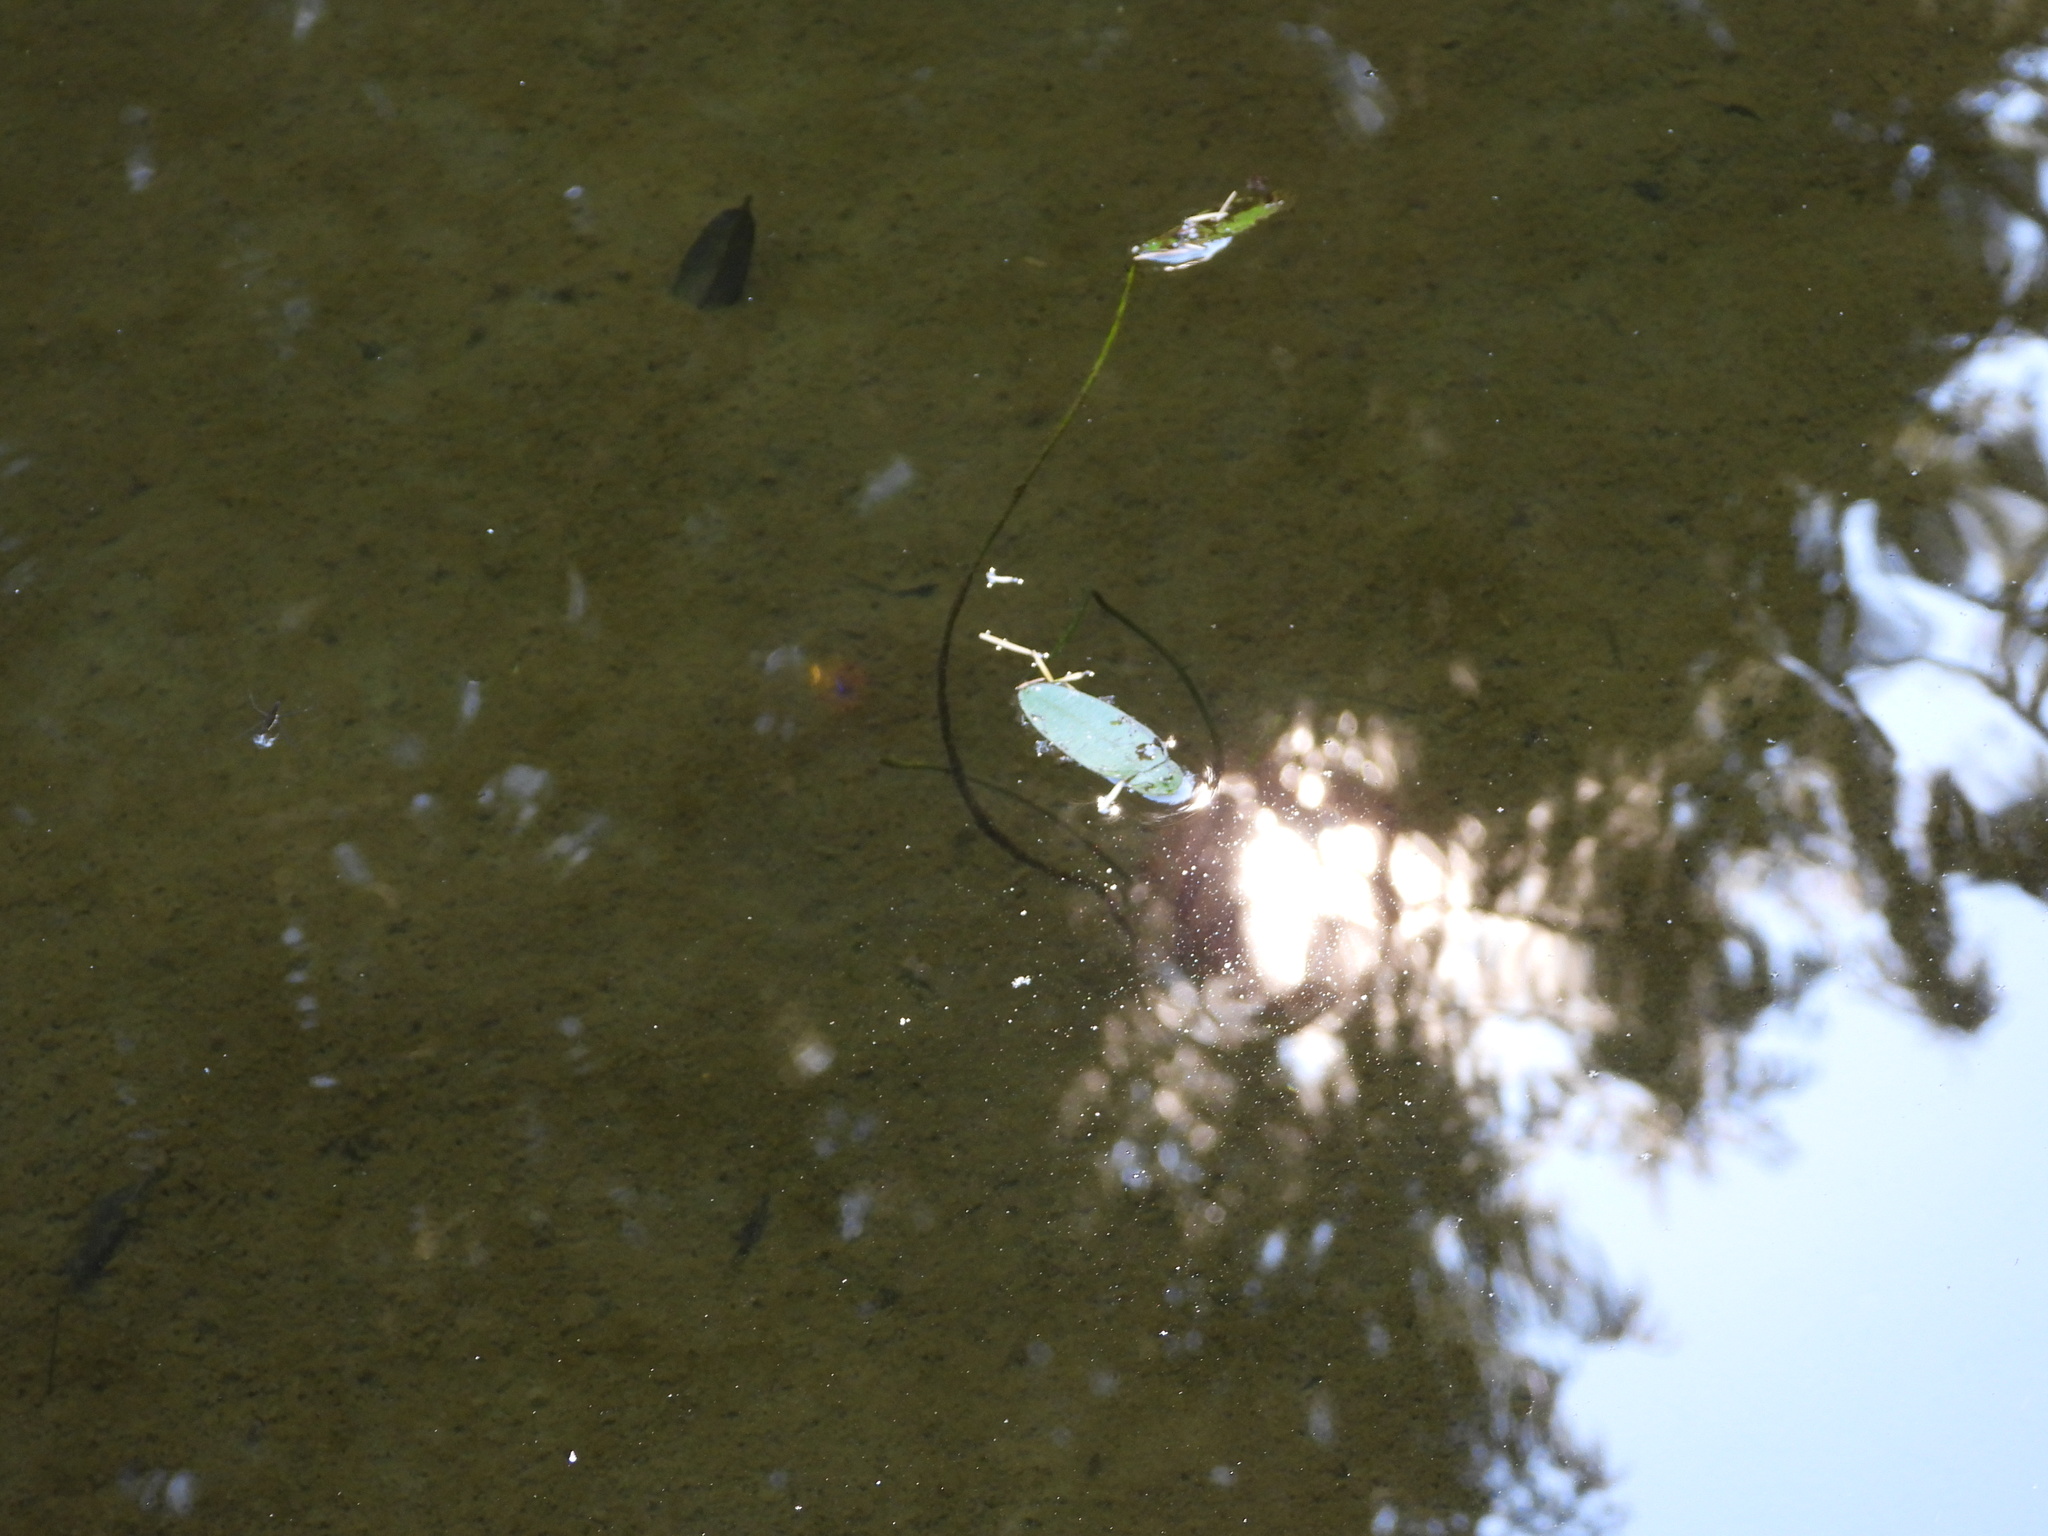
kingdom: Plantae
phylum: Tracheophyta
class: Liliopsida
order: Alismatales
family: Aponogetonaceae
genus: Aponogeton
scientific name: Aponogeton distachyos
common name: Cape-pondweed
